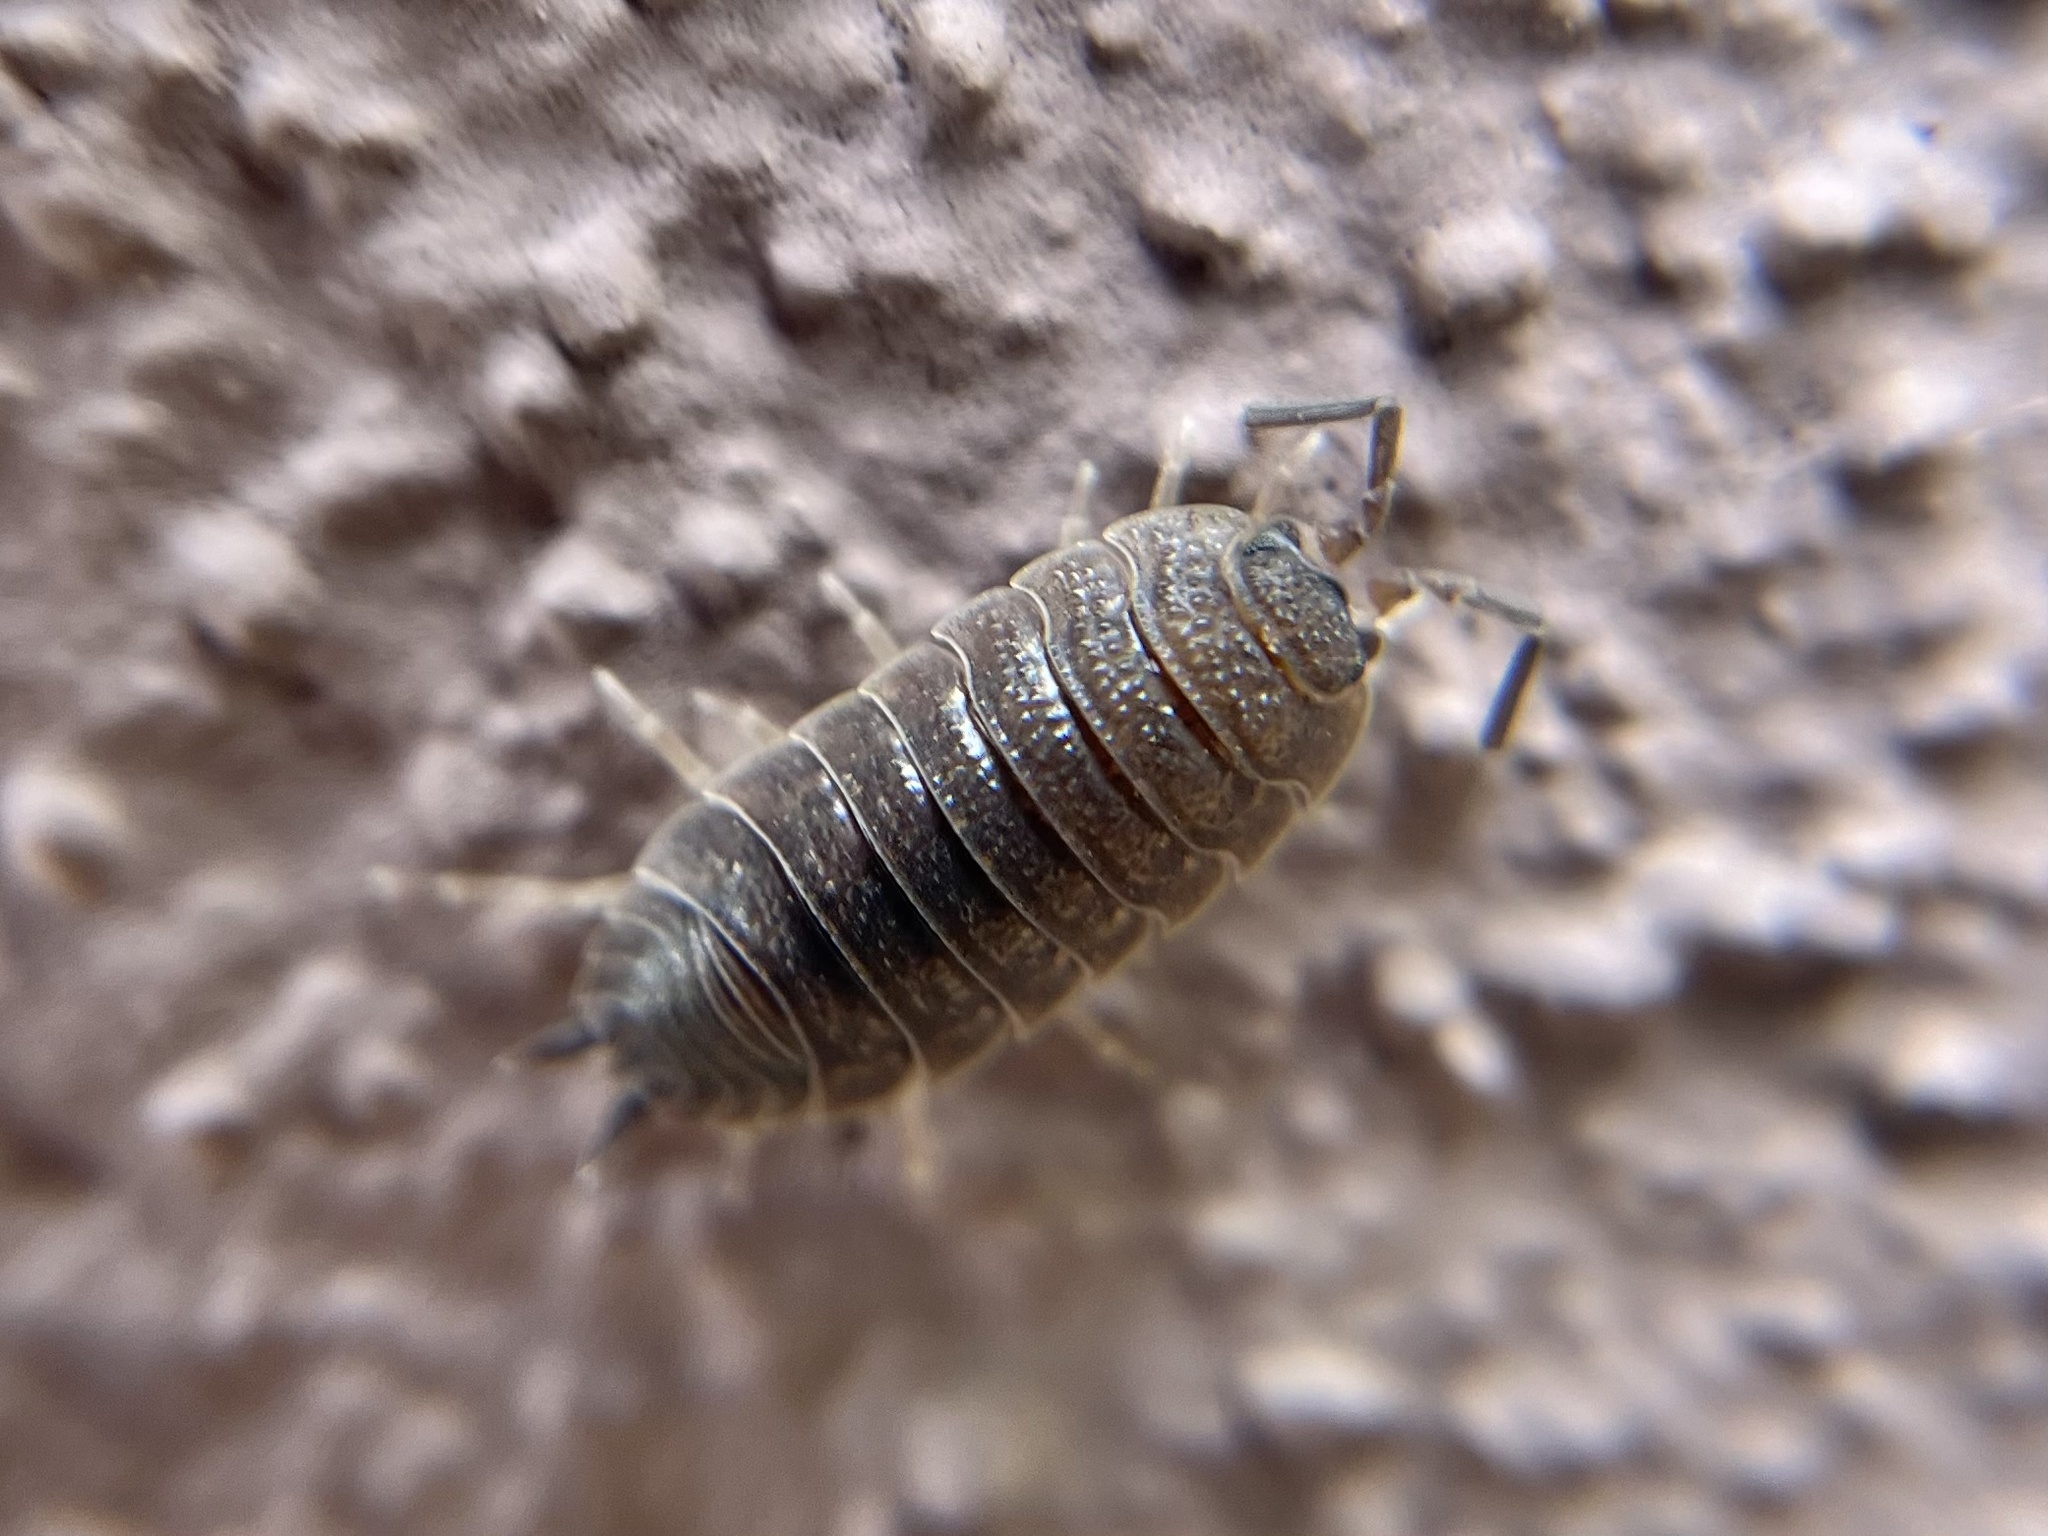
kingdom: Animalia
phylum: Arthropoda
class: Malacostraca
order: Isopoda
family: Porcellionidae
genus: Porcellio
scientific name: Porcellio scaber
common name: Common rough woodlouse
